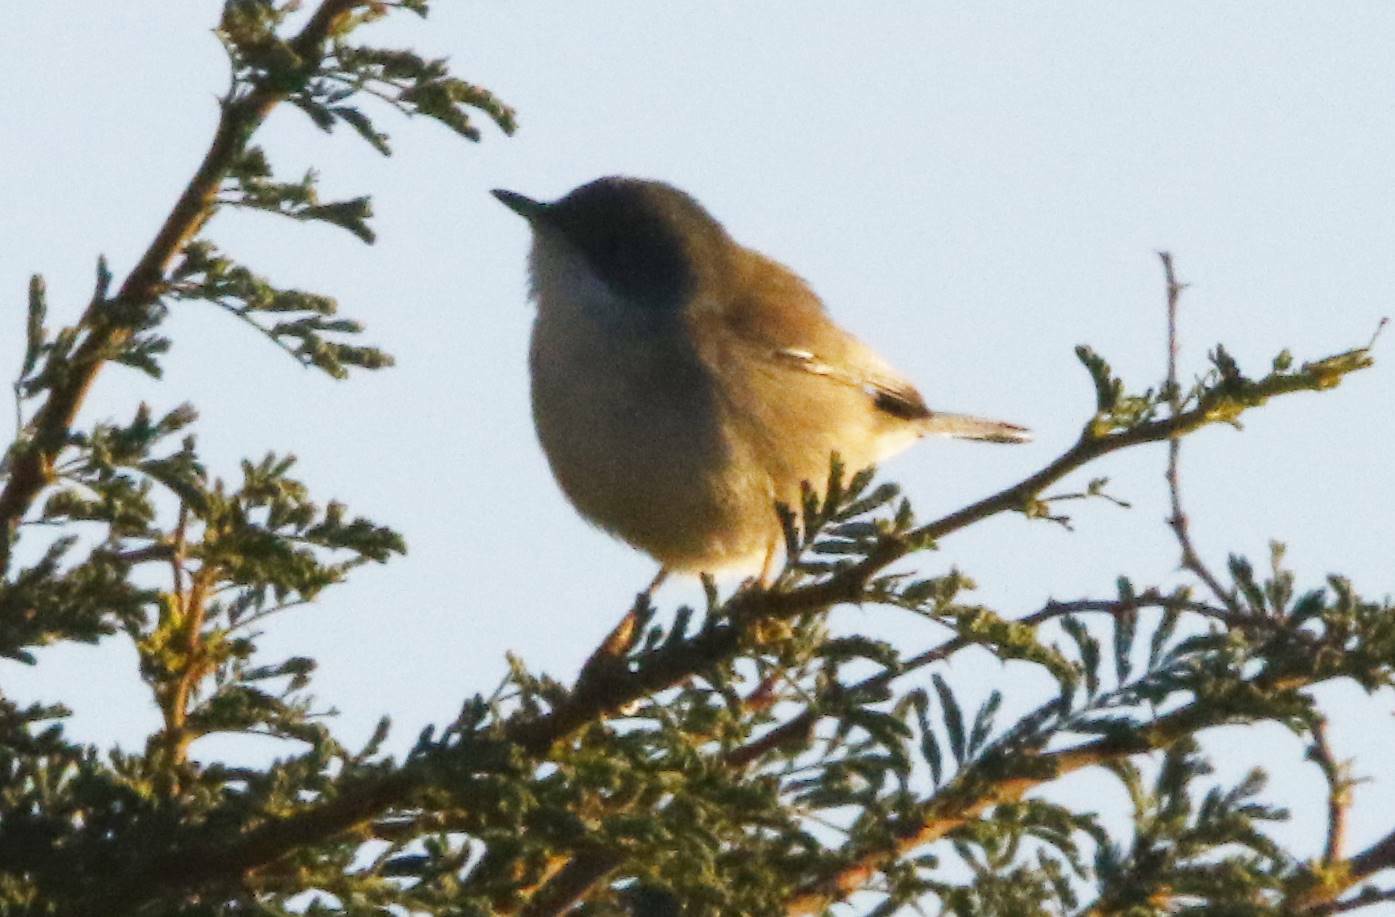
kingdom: Animalia
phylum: Chordata
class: Aves
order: Passeriformes
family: Sylviidae
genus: Curruca
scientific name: Curruca melanocephala
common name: Sardinian warbler
